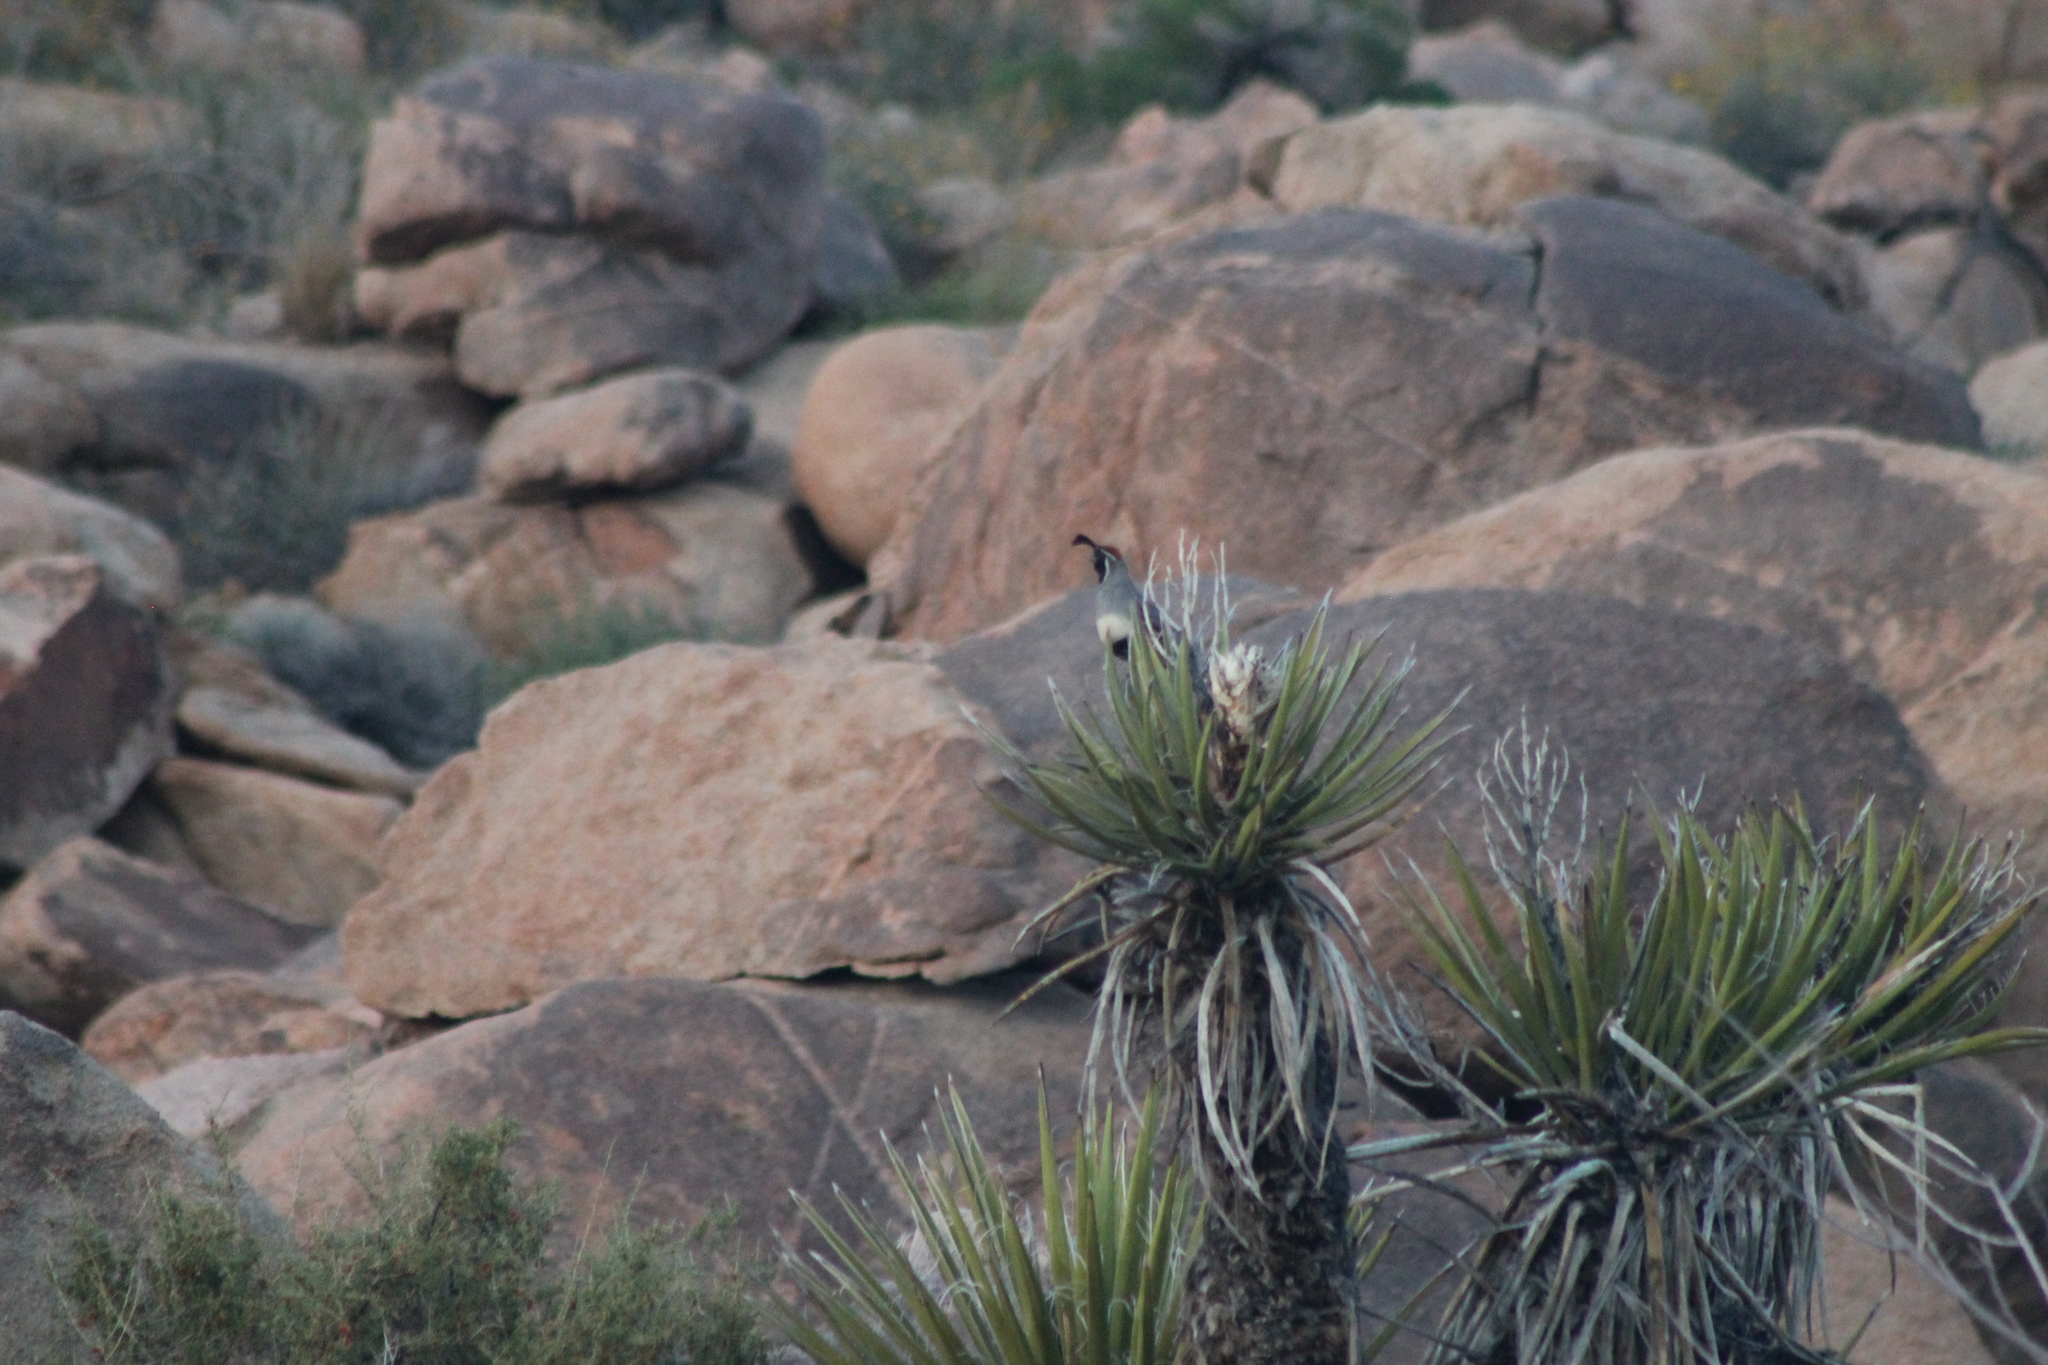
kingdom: Animalia
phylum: Chordata
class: Aves
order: Galliformes
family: Odontophoridae
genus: Callipepla
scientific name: Callipepla gambelii
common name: Gambel's quail
